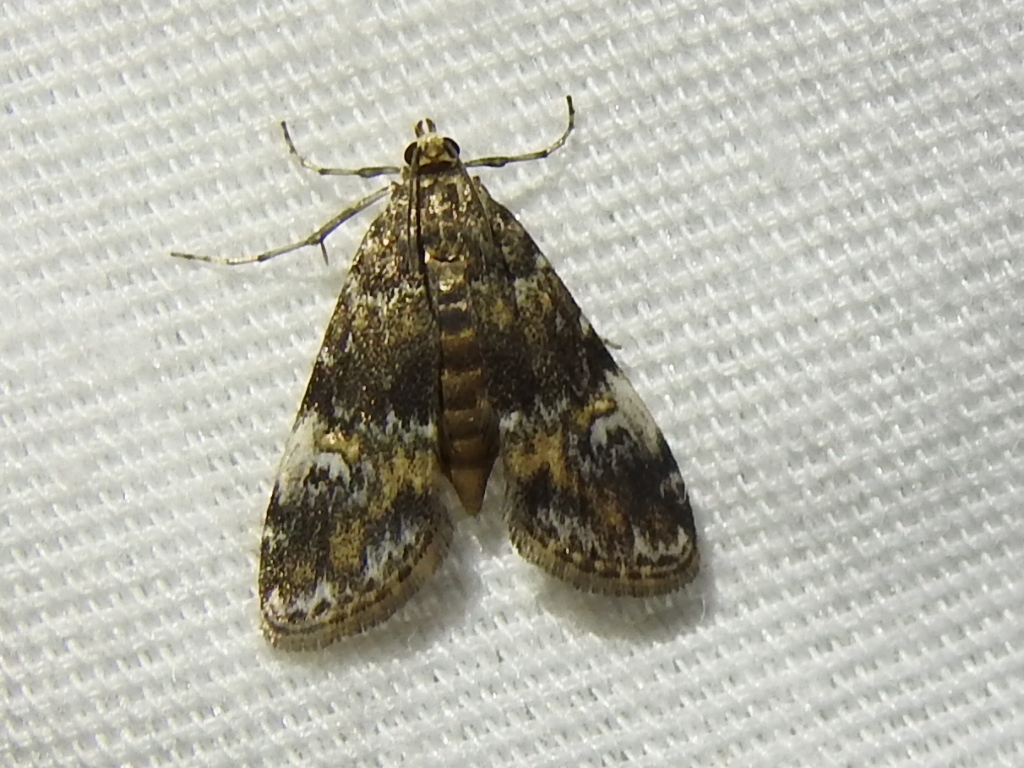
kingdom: Animalia
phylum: Arthropoda
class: Insecta
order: Lepidoptera
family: Crambidae
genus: Elophila
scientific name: Elophila obliteralis
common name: Waterlily leafcutter moth
